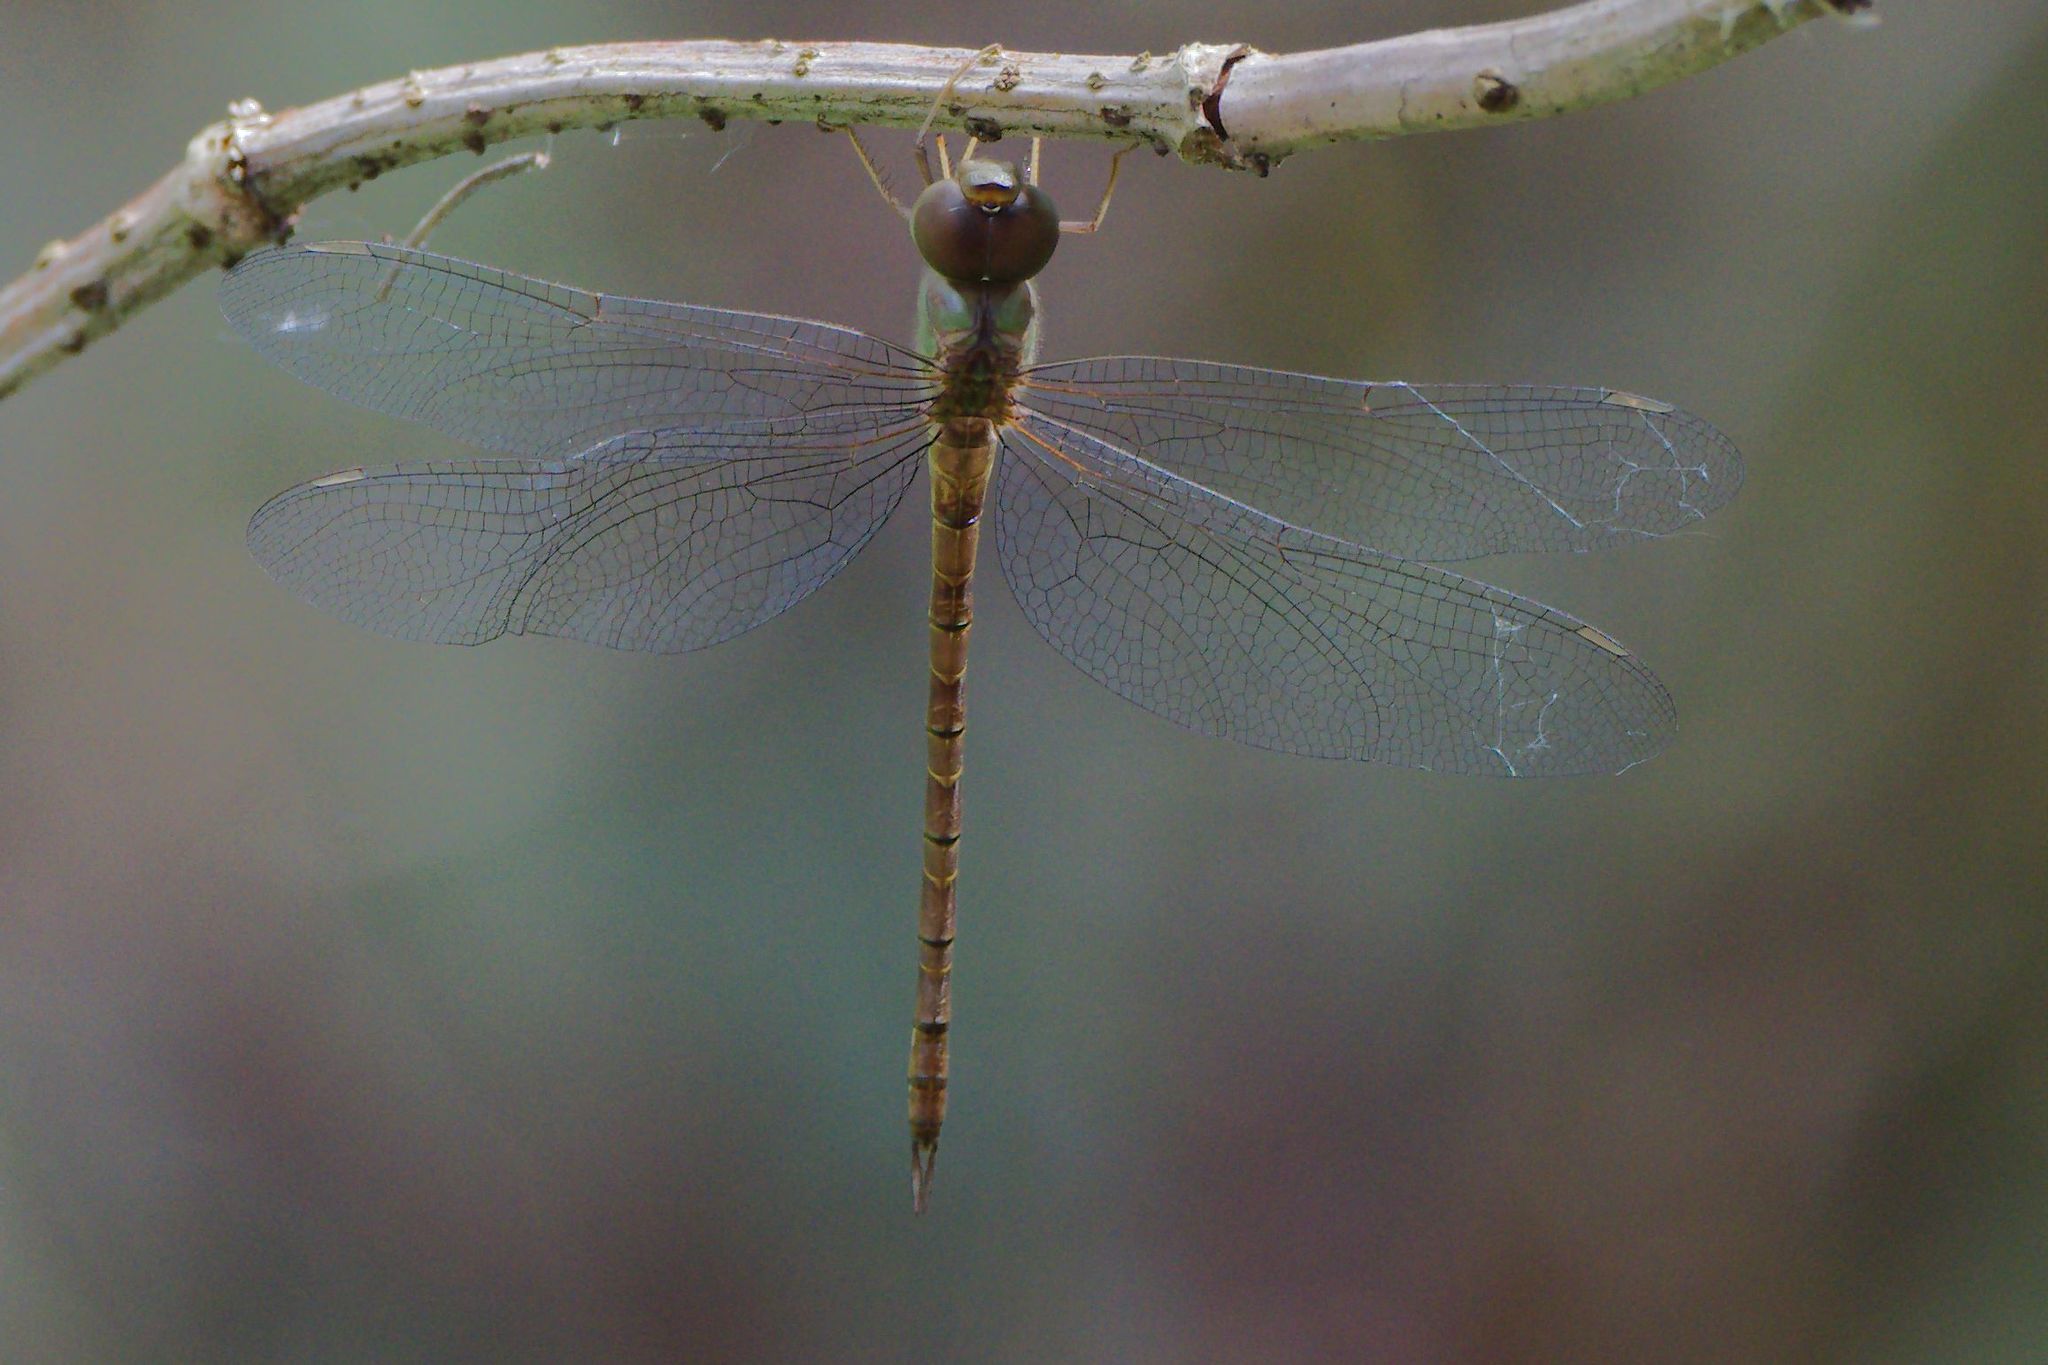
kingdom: Animalia
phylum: Arthropoda
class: Insecta
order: Odonata
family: Aeshnidae
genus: Triacanthagyna
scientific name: Triacanthagyna septima
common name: Pale-green darner
